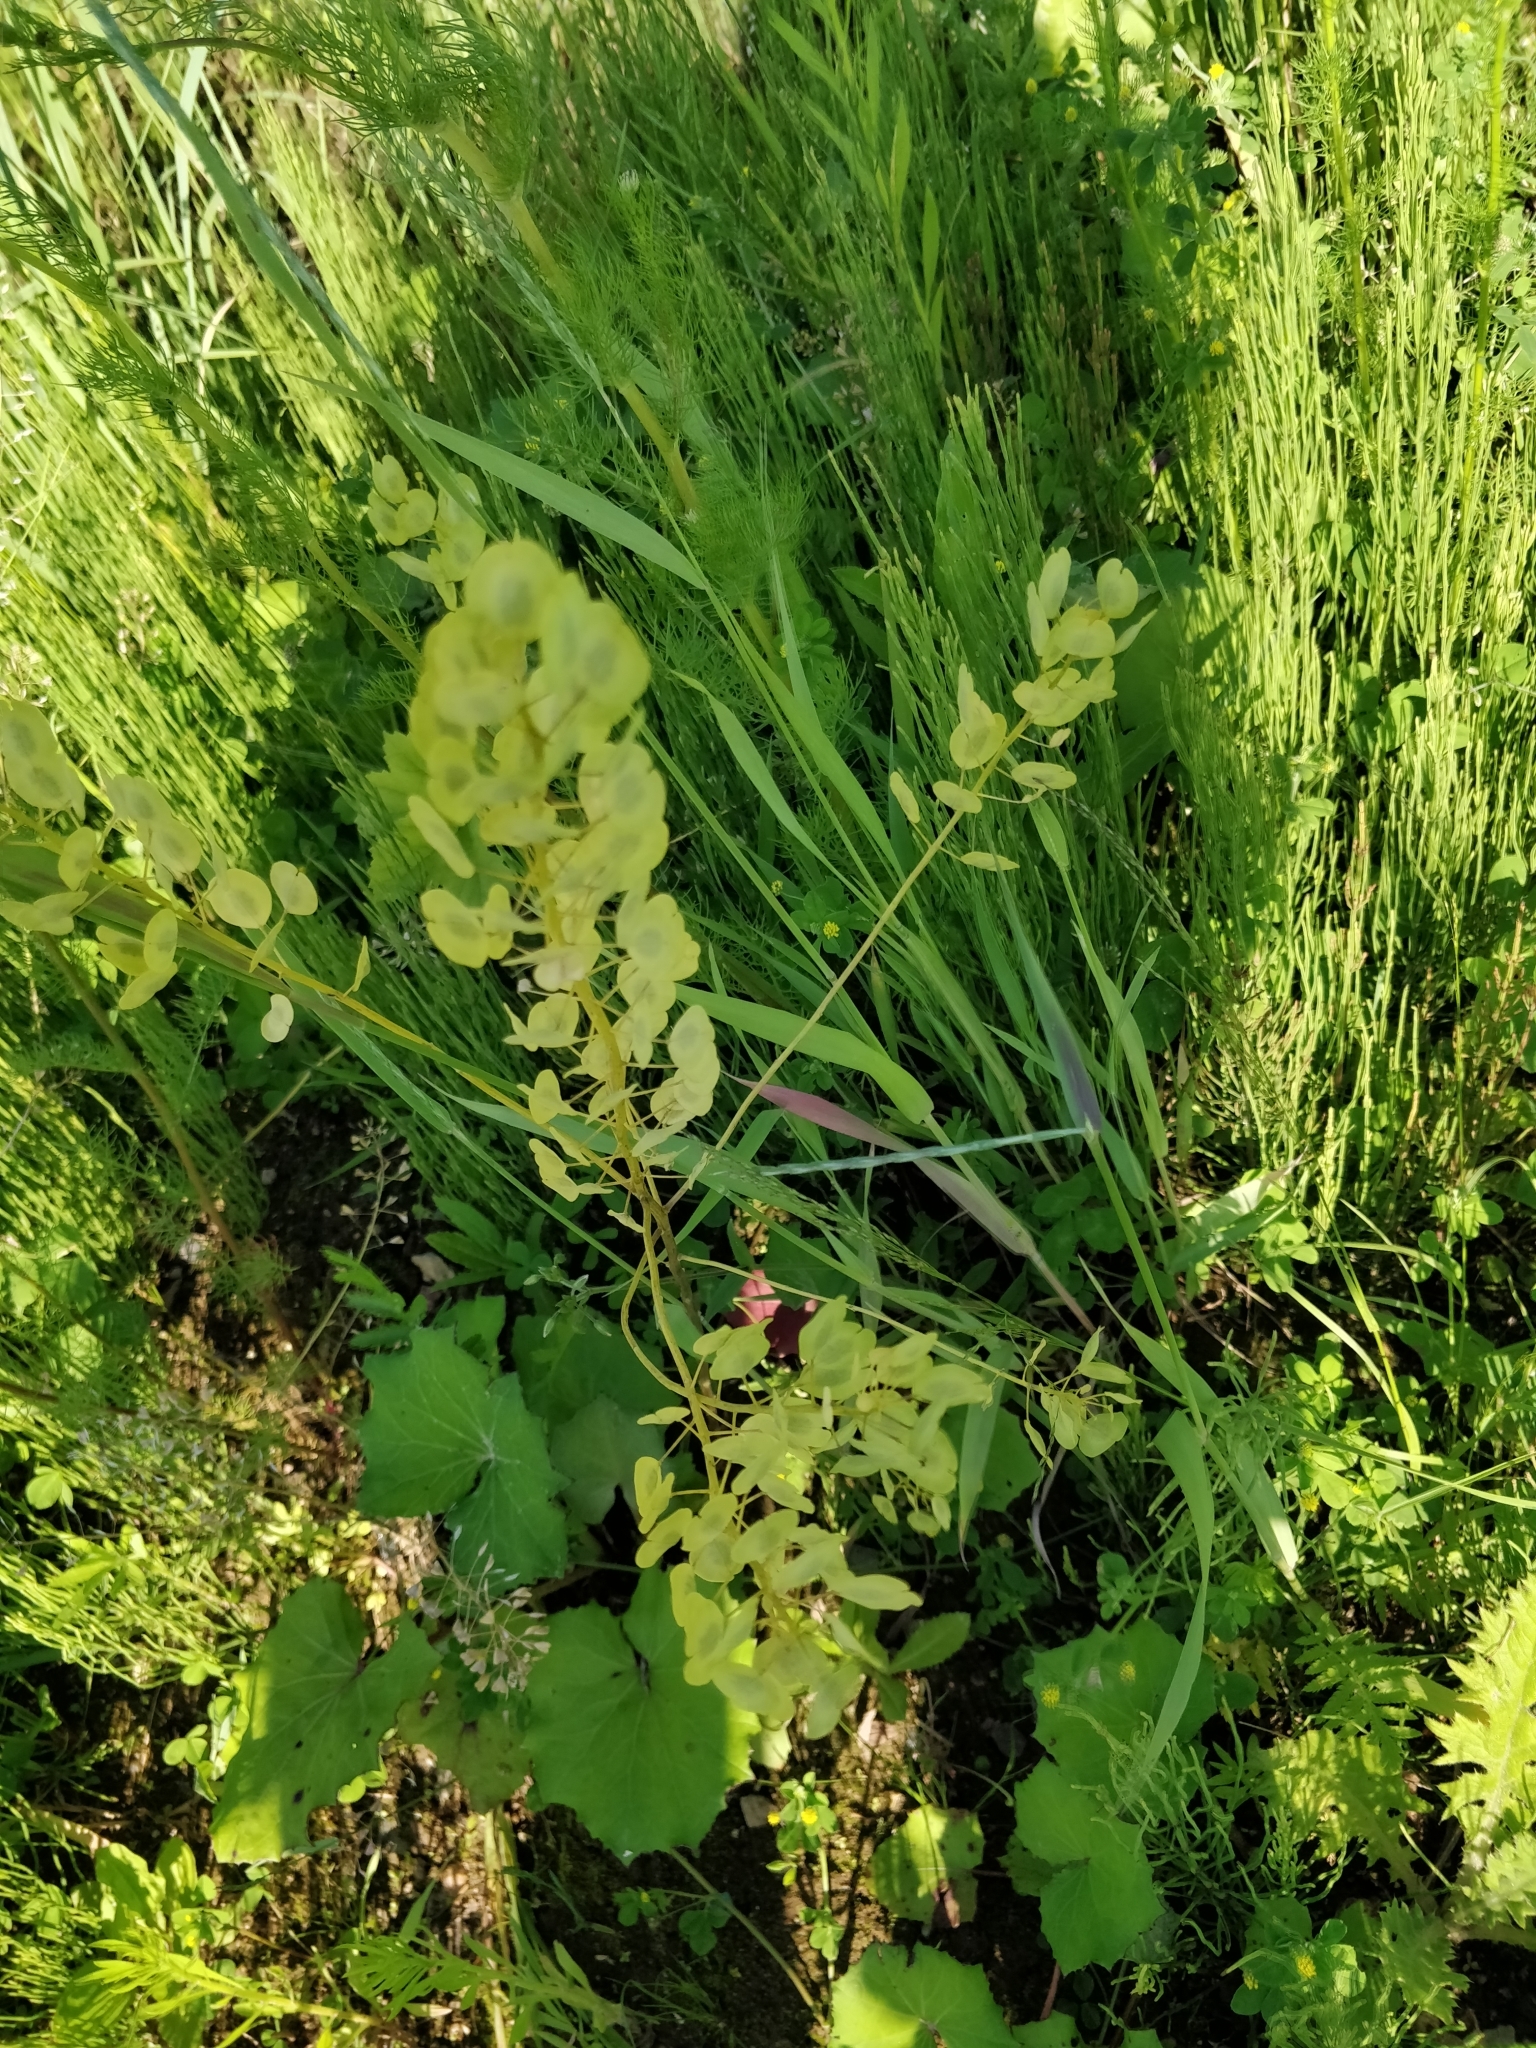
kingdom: Plantae
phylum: Tracheophyta
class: Magnoliopsida
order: Brassicales
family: Brassicaceae
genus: Thlaspi
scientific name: Thlaspi arvense
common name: Field pennycress
